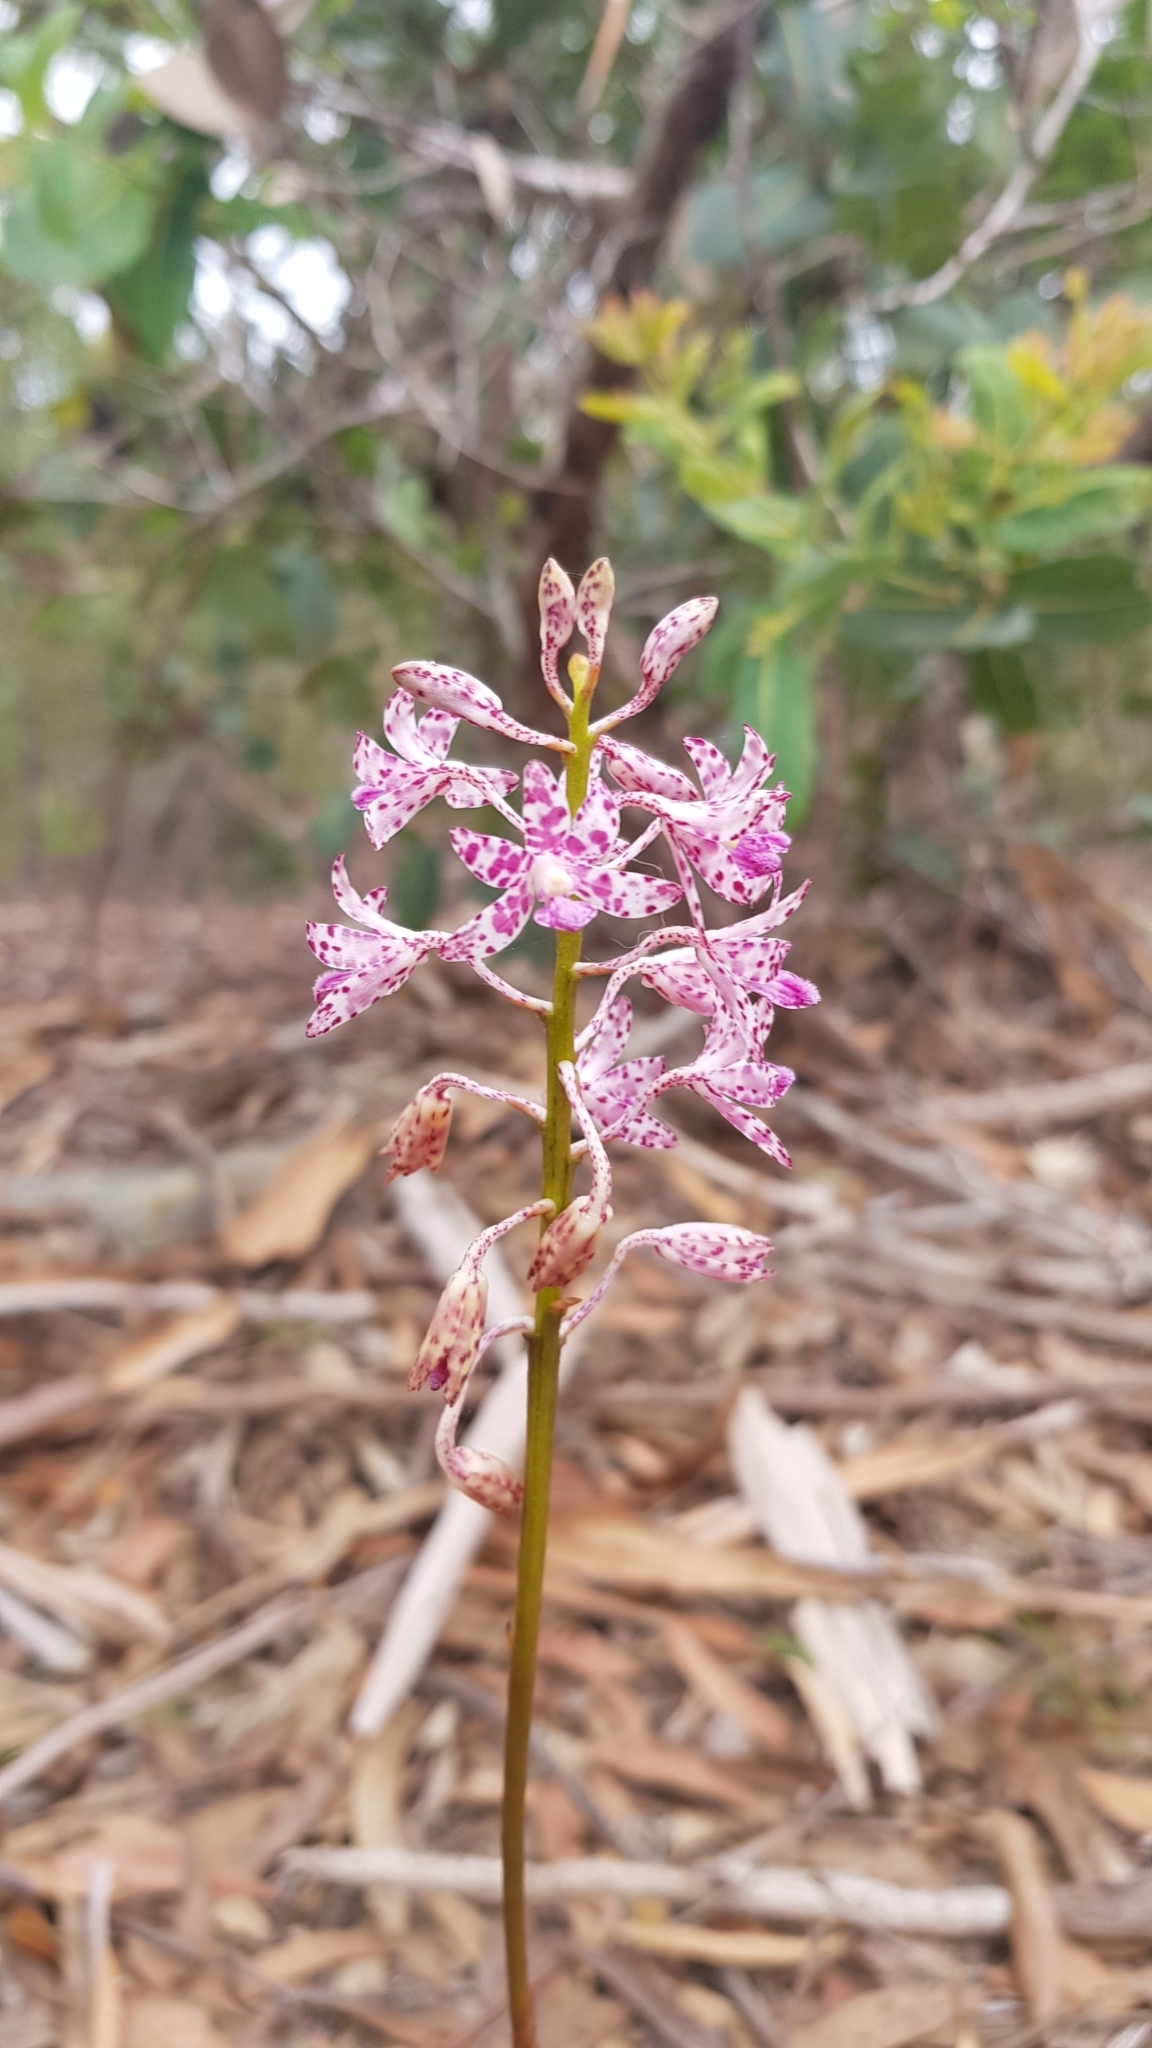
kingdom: Plantae
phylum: Tracheophyta
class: Liliopsida
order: Asparagales
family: Orchidaceae
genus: Dipodium
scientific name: Dipodium variegatum
